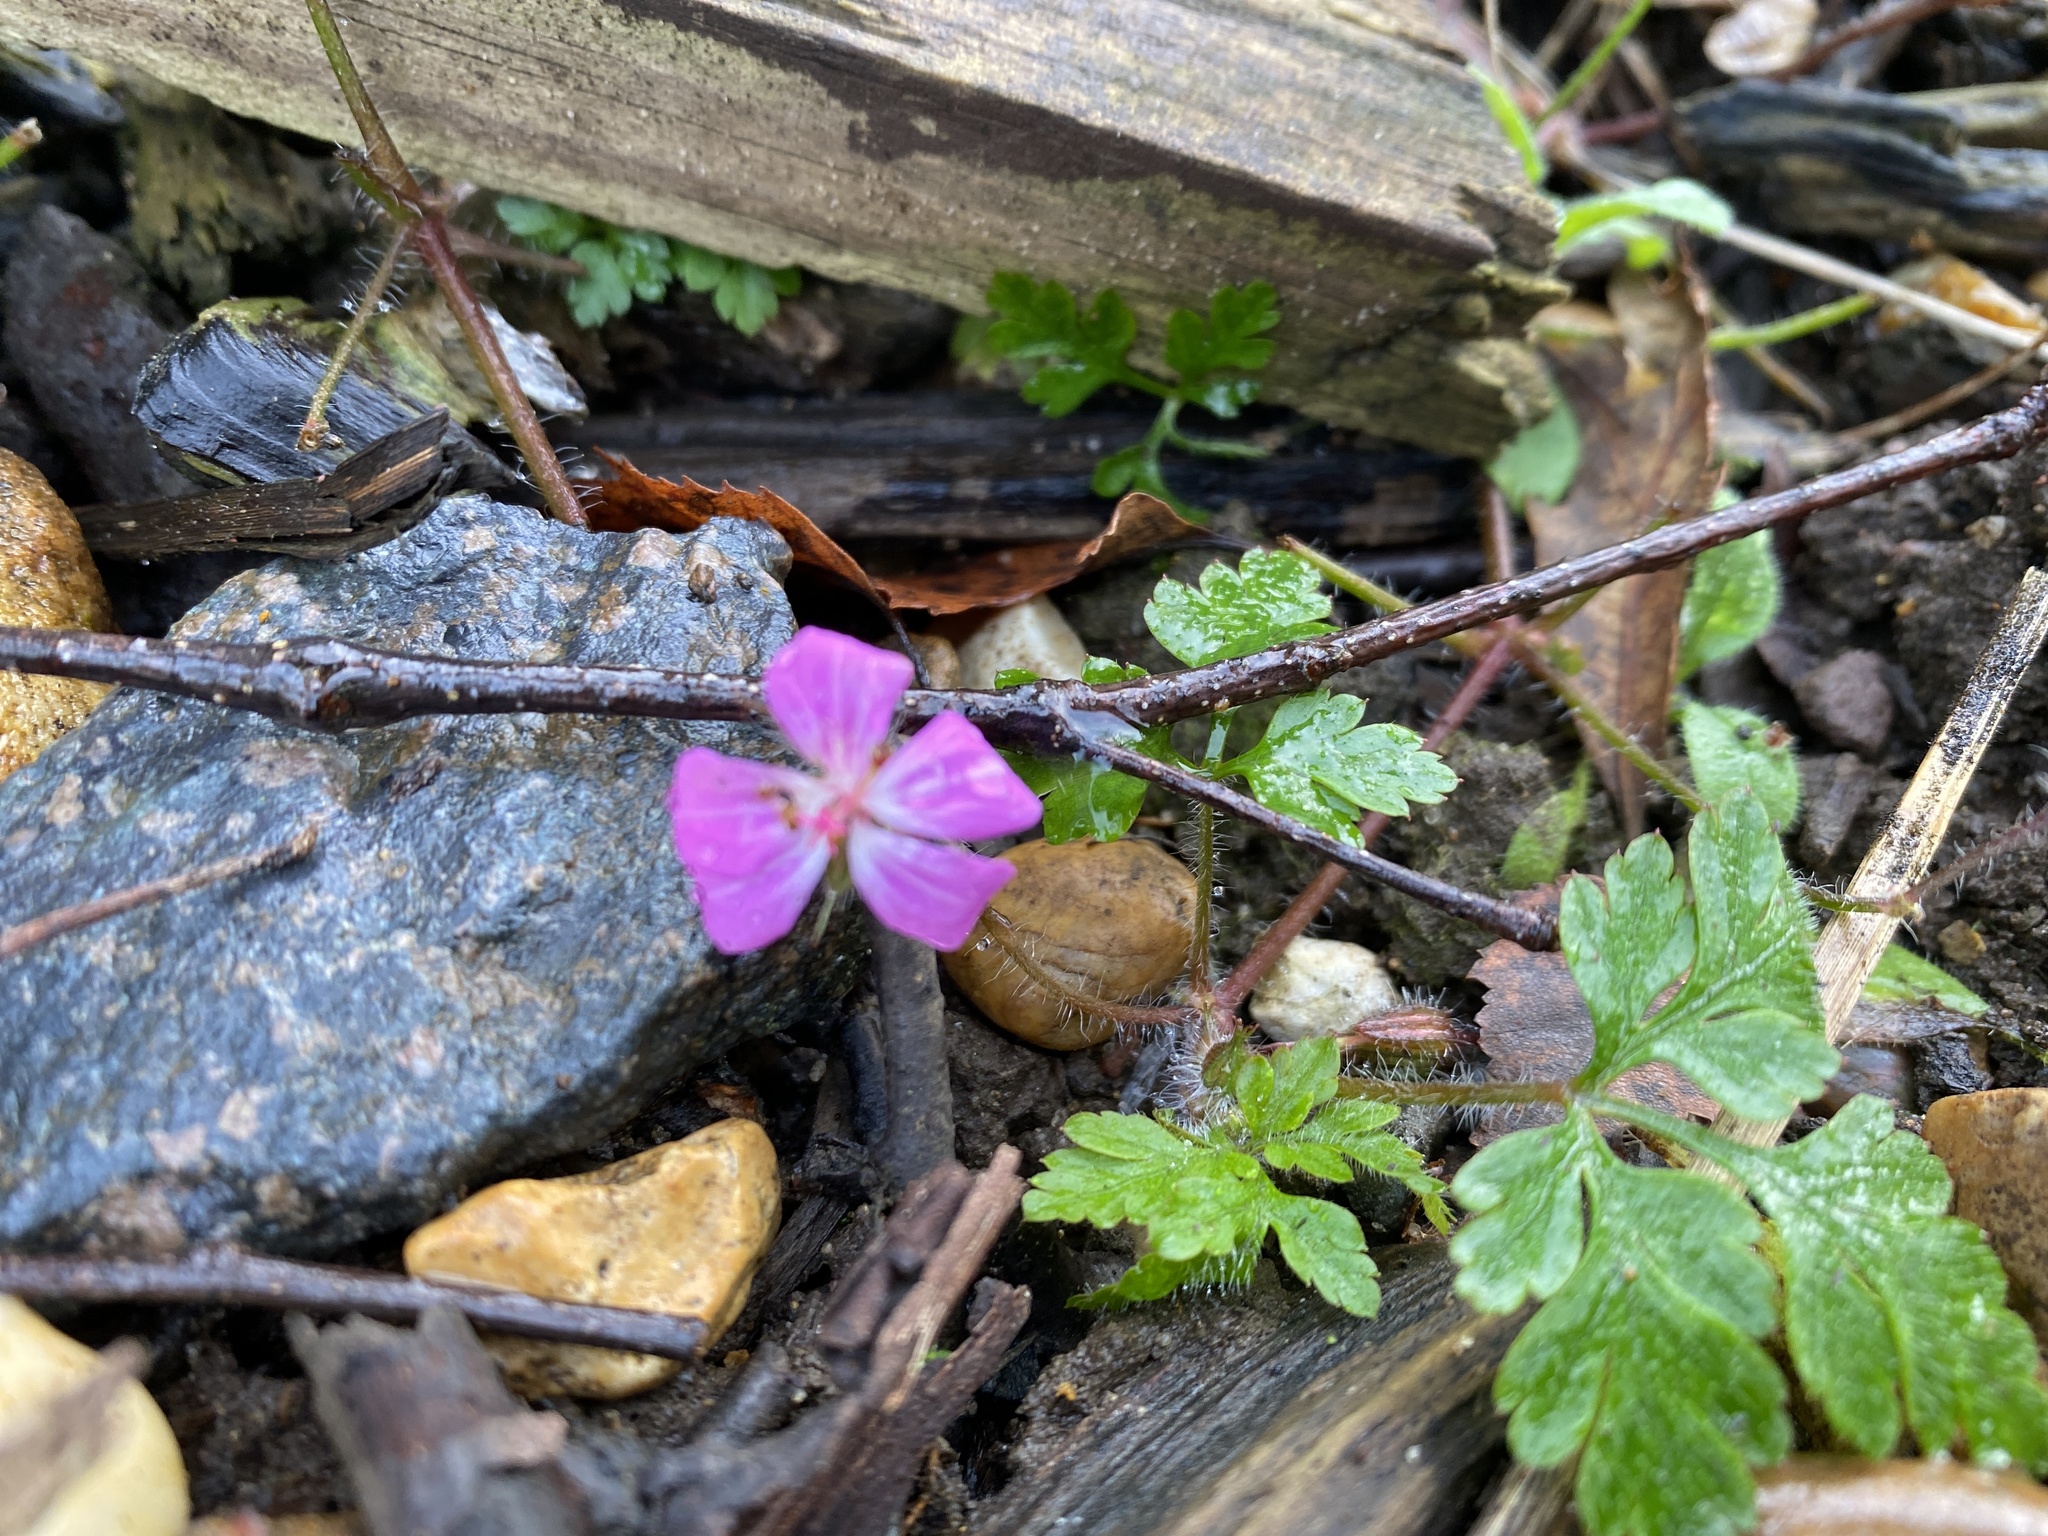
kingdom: Plantae
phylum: Tracheophyta
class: Magnoliopsida
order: Geraniales
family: Geraniaceae
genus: Geranium
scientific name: Geranium robertianum
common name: Herb-robert
